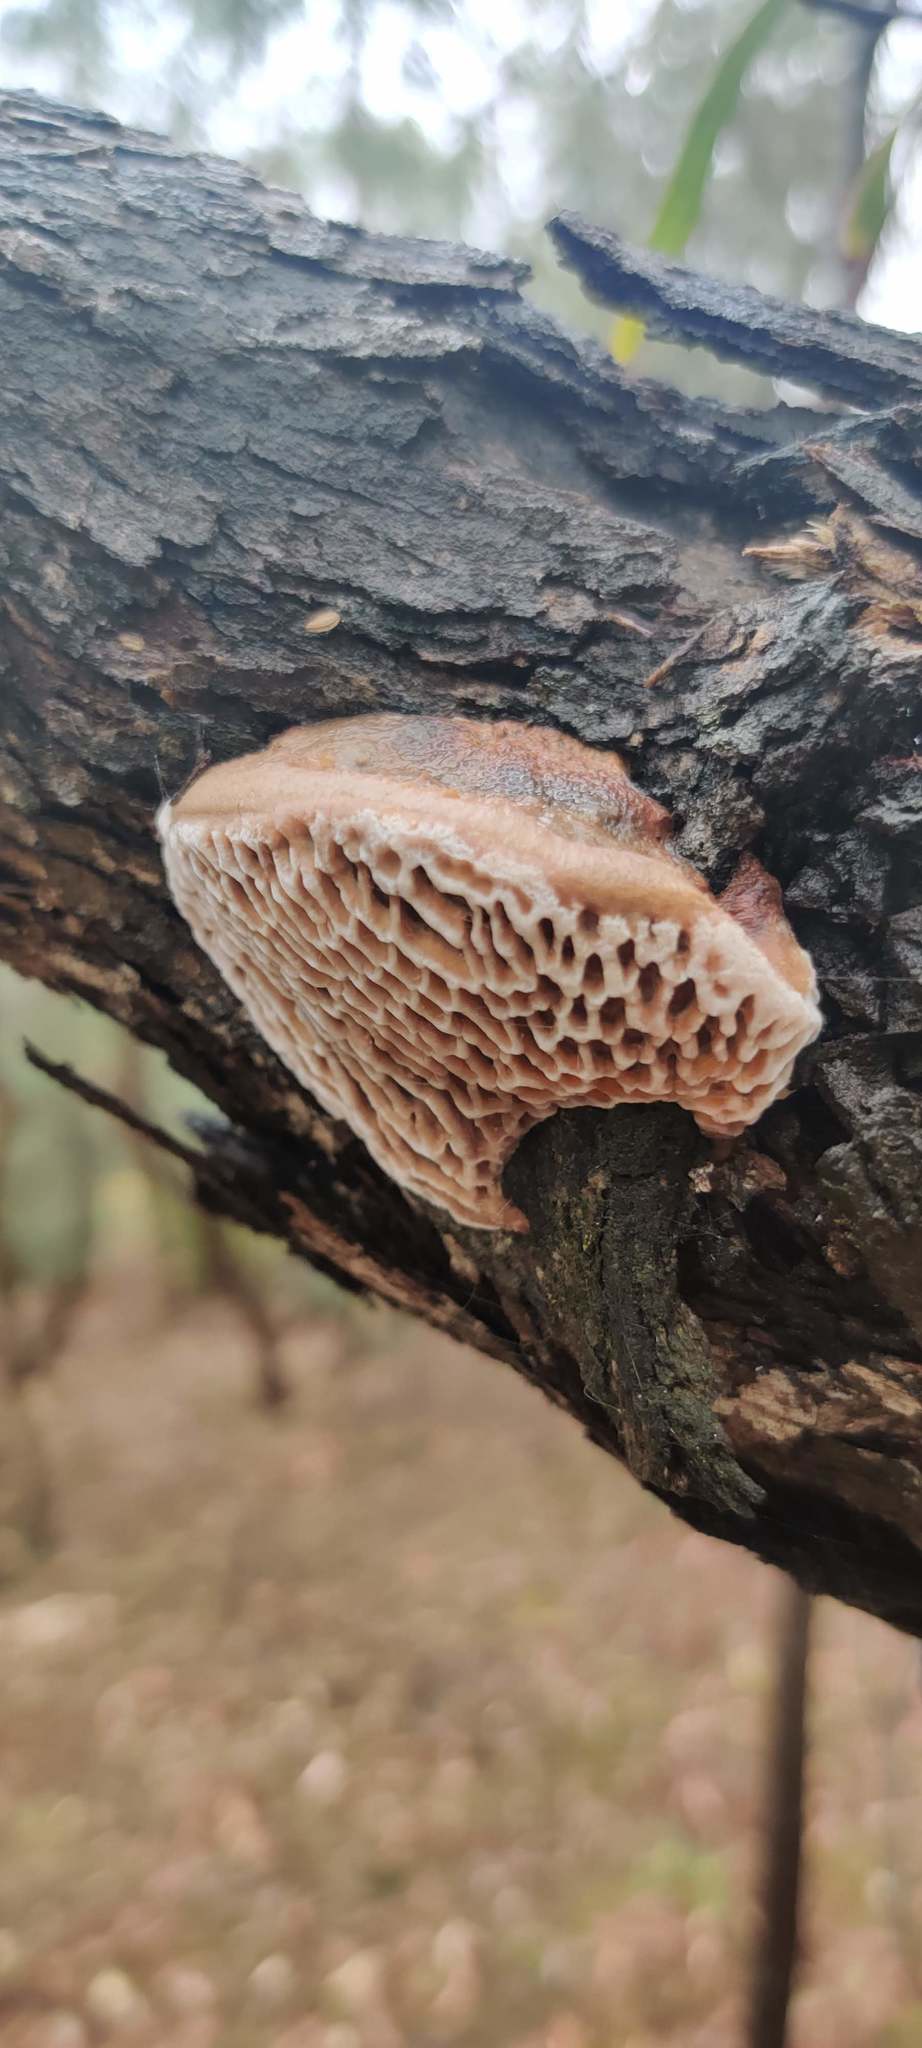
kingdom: Fungi
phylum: Basidiomycota
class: Agaricomycetes
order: Polyporales
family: Polyporaceae
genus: Hexagonia
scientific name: Hexagonia vesparia
